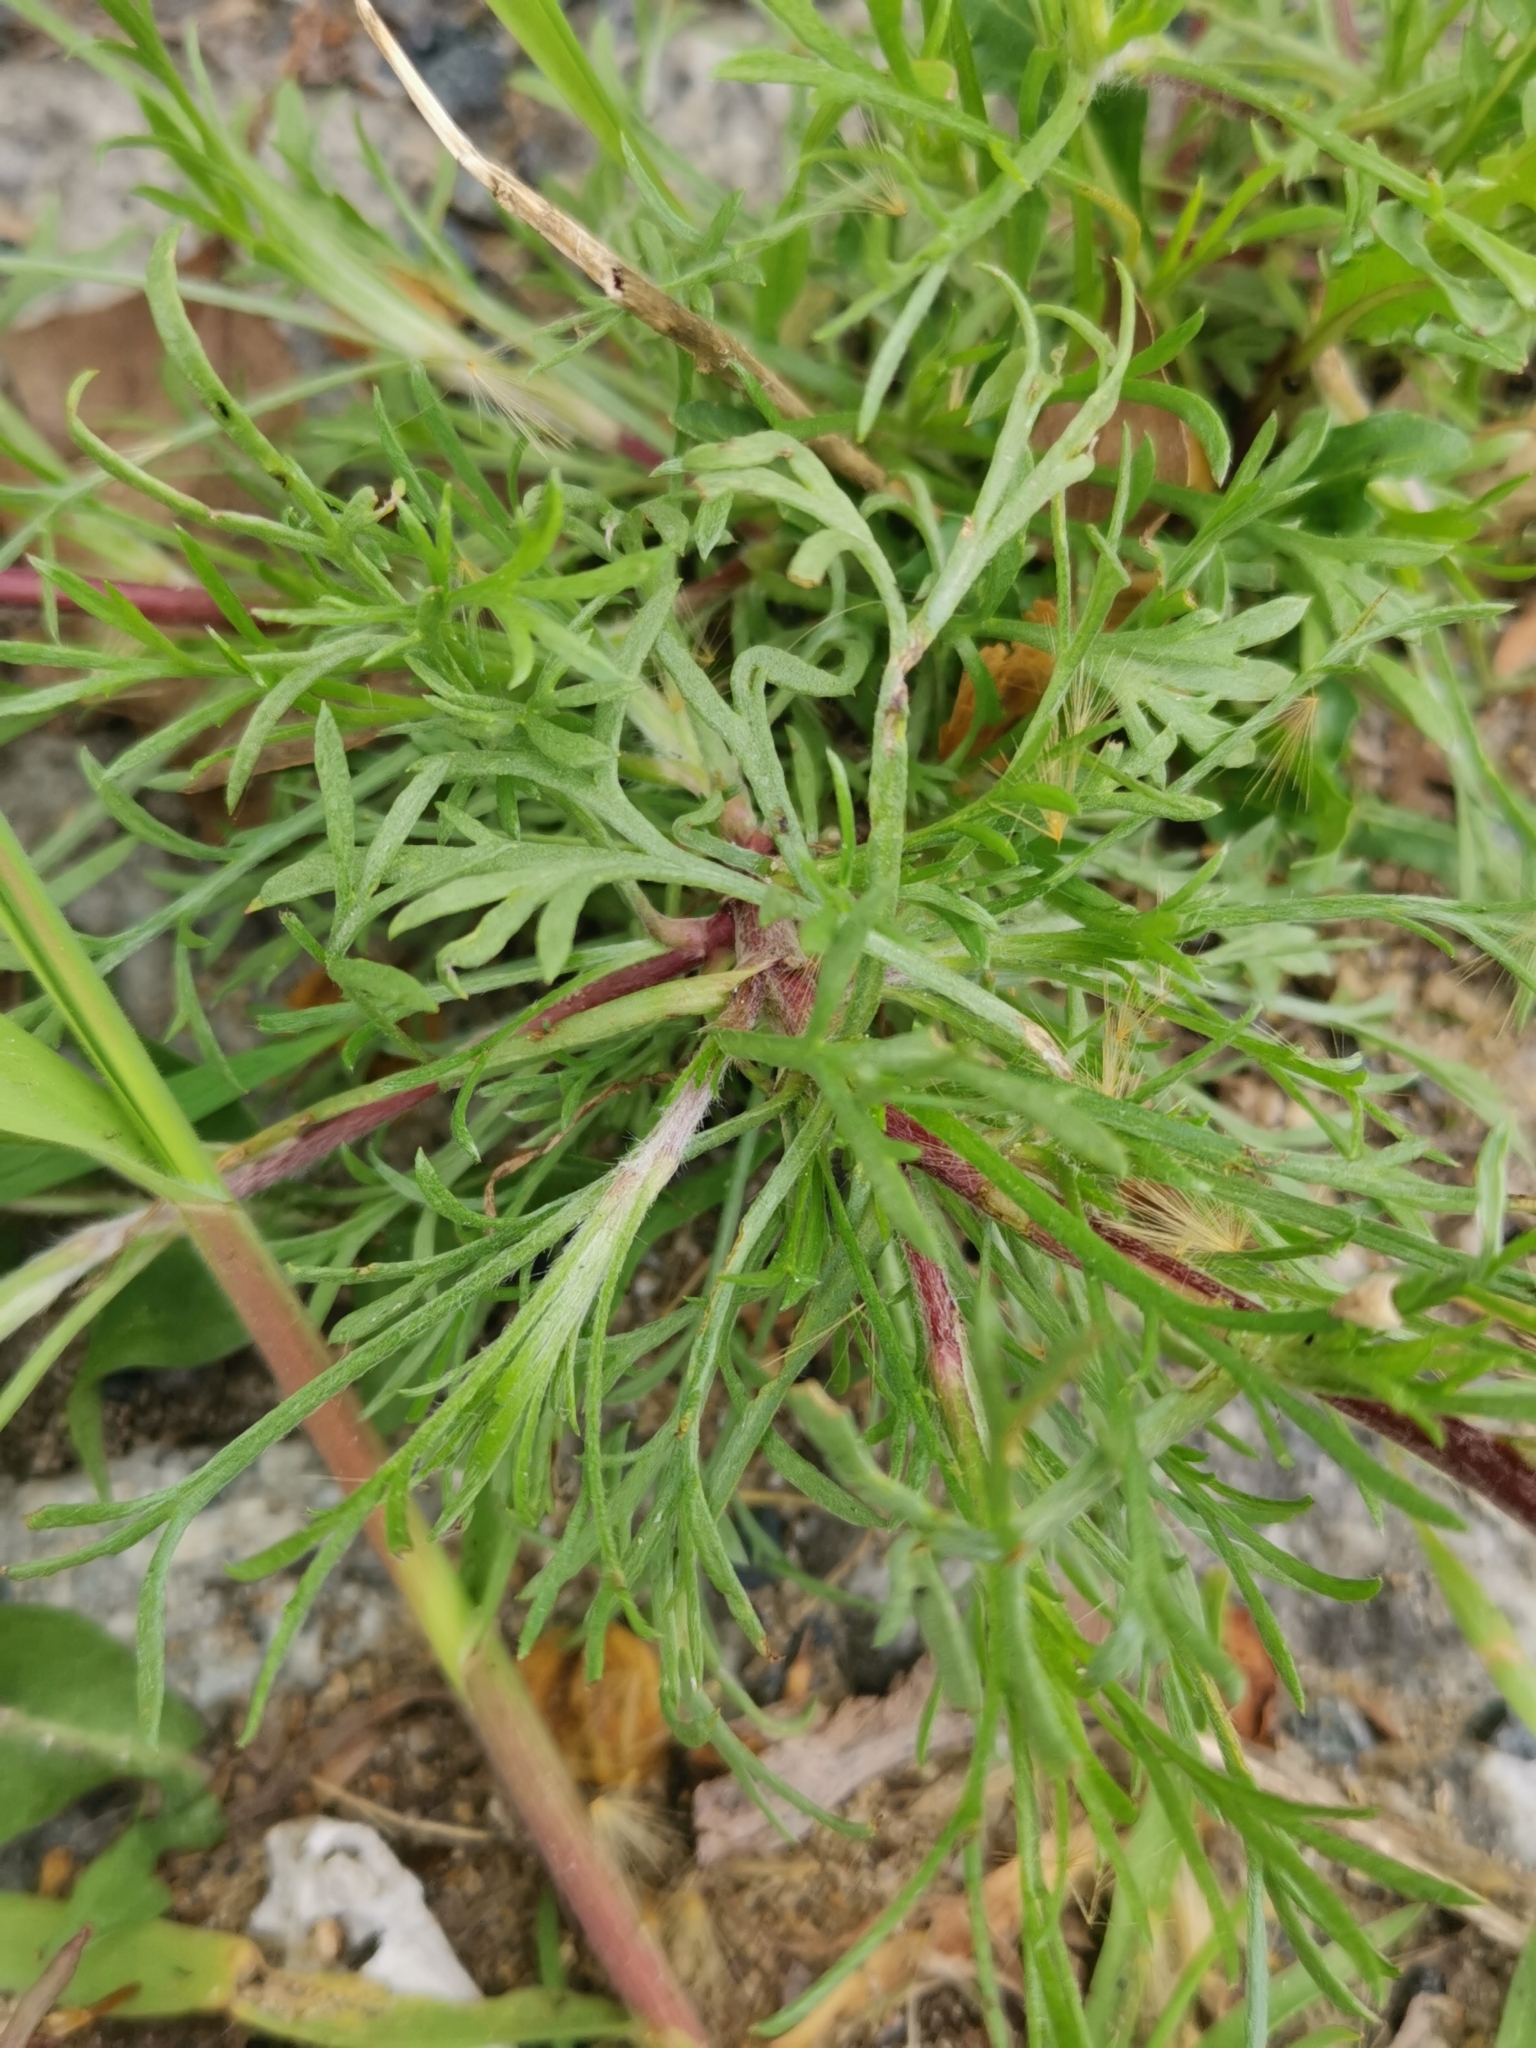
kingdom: Plantae
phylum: Tracheophyta
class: Magnoliopsida
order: Asterales
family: Asteraceae
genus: Artemisia
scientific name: Artemisia campestris
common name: Field wormwood
